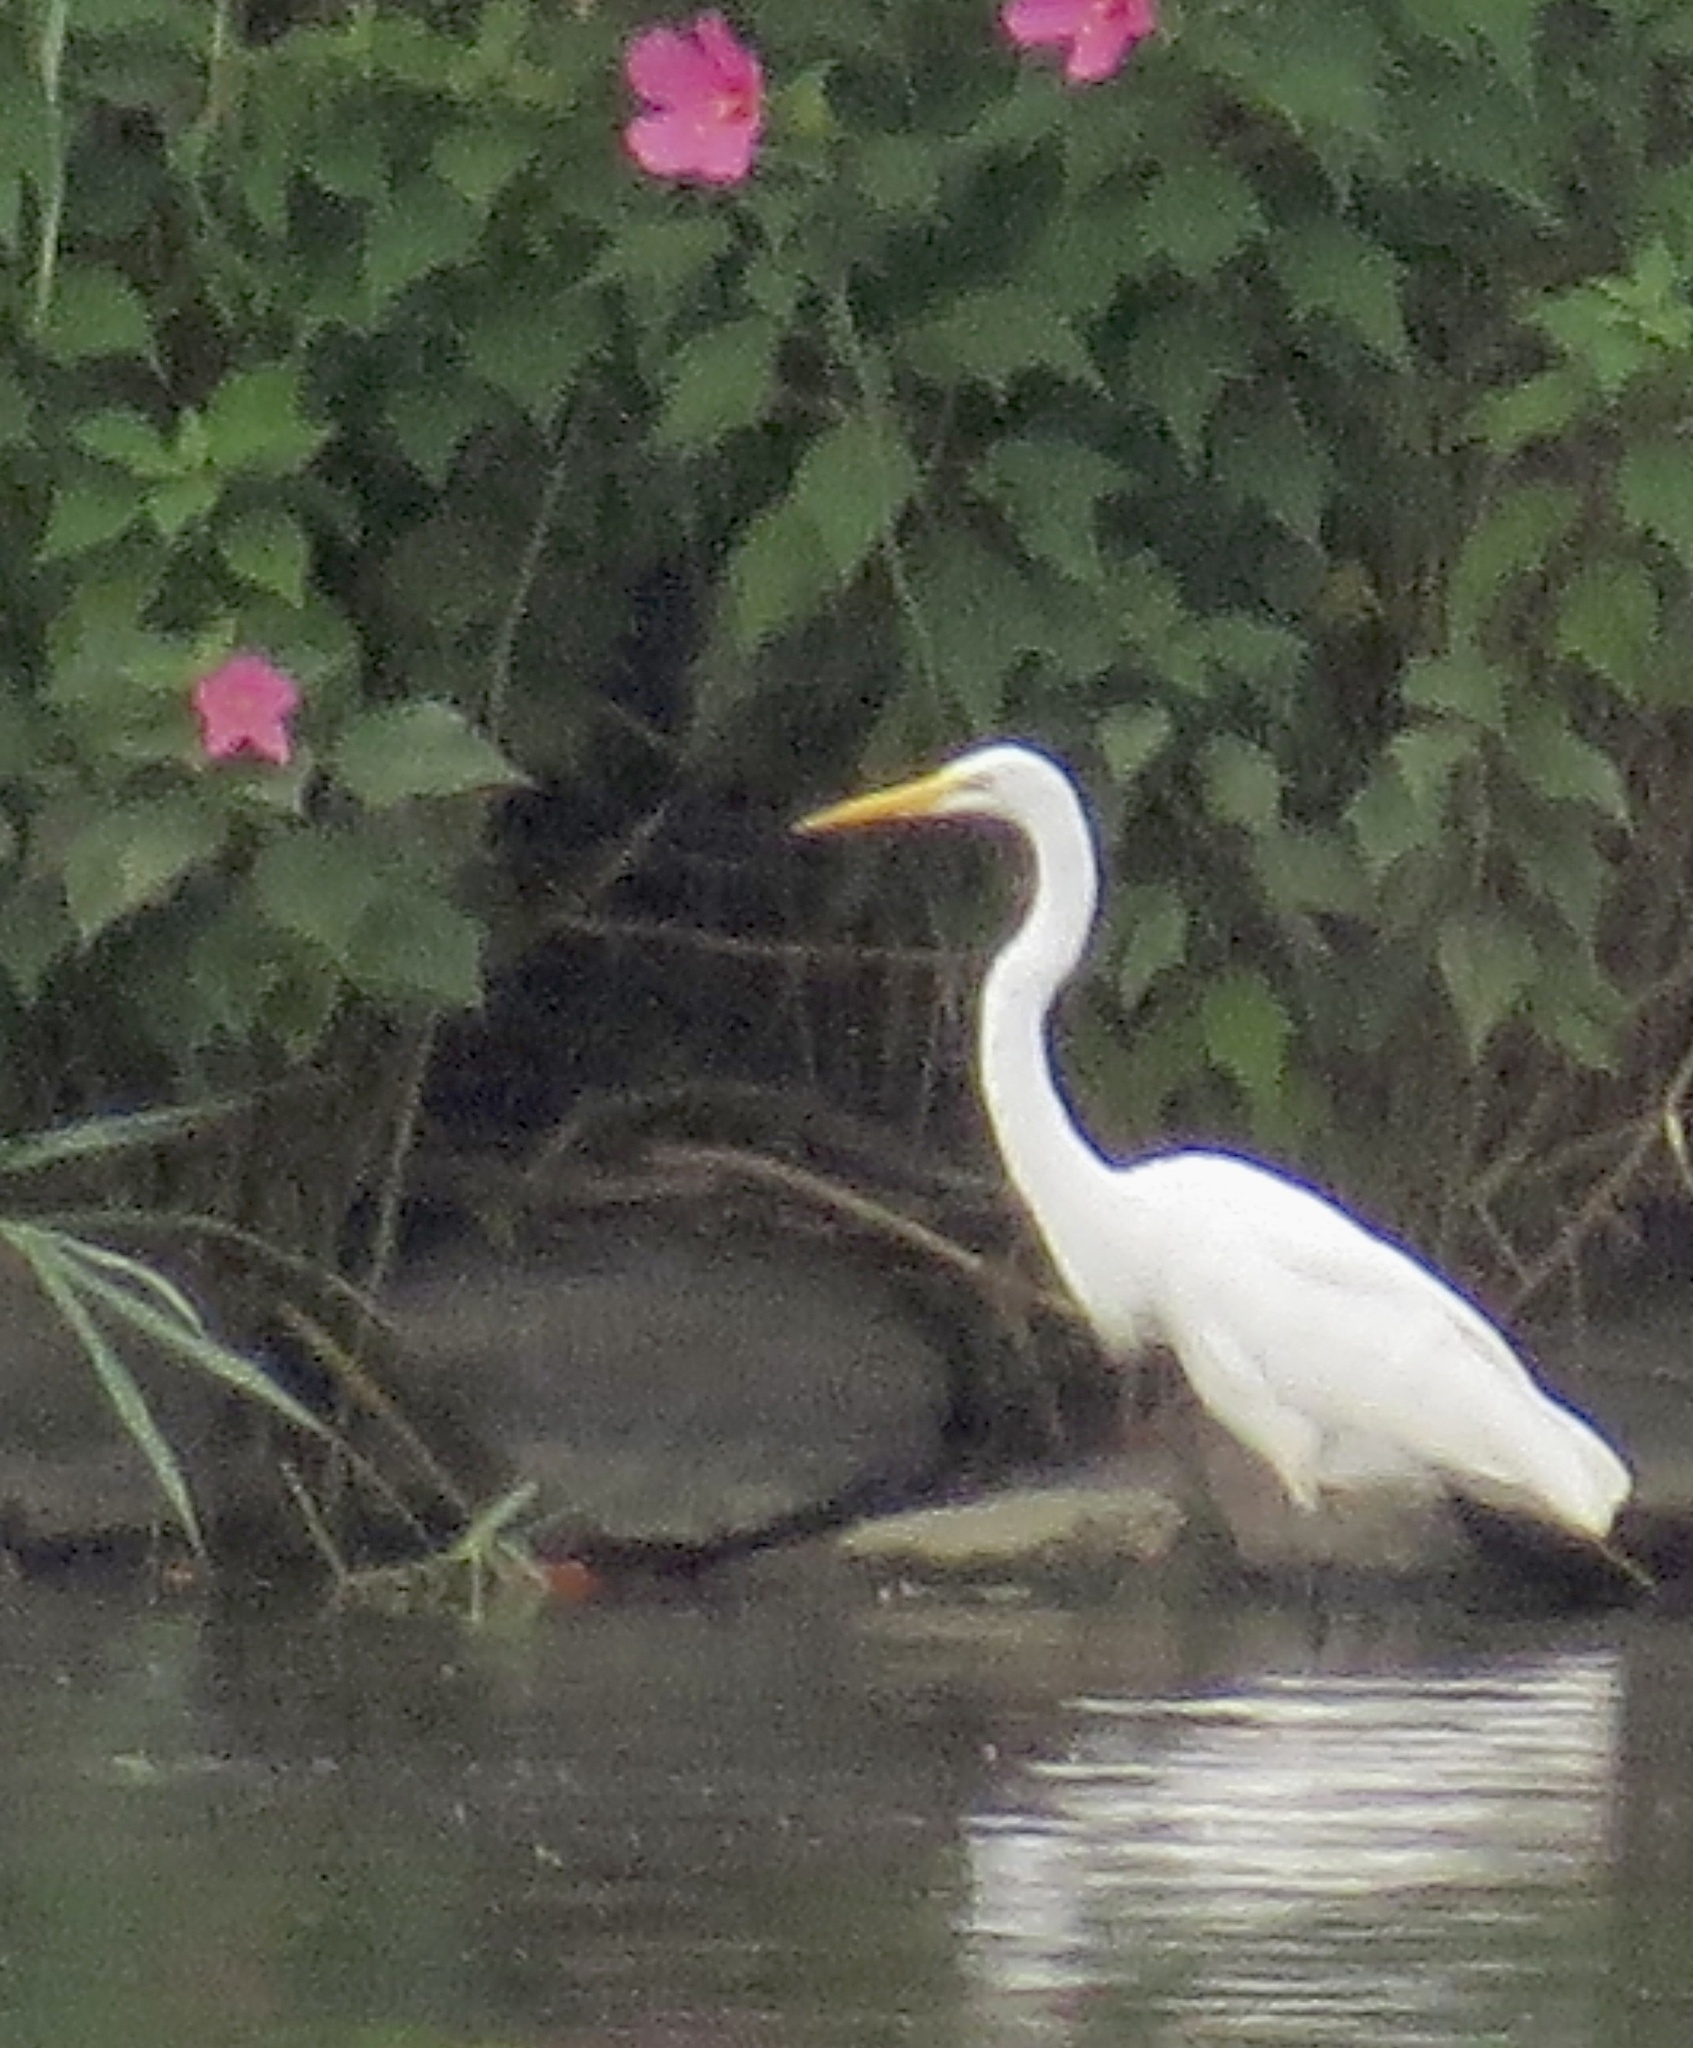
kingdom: Animalia
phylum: Chordata
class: Aves
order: Pelecaniformes
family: Ardeidae
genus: Ardea
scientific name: Ardea alba
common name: Great egret
